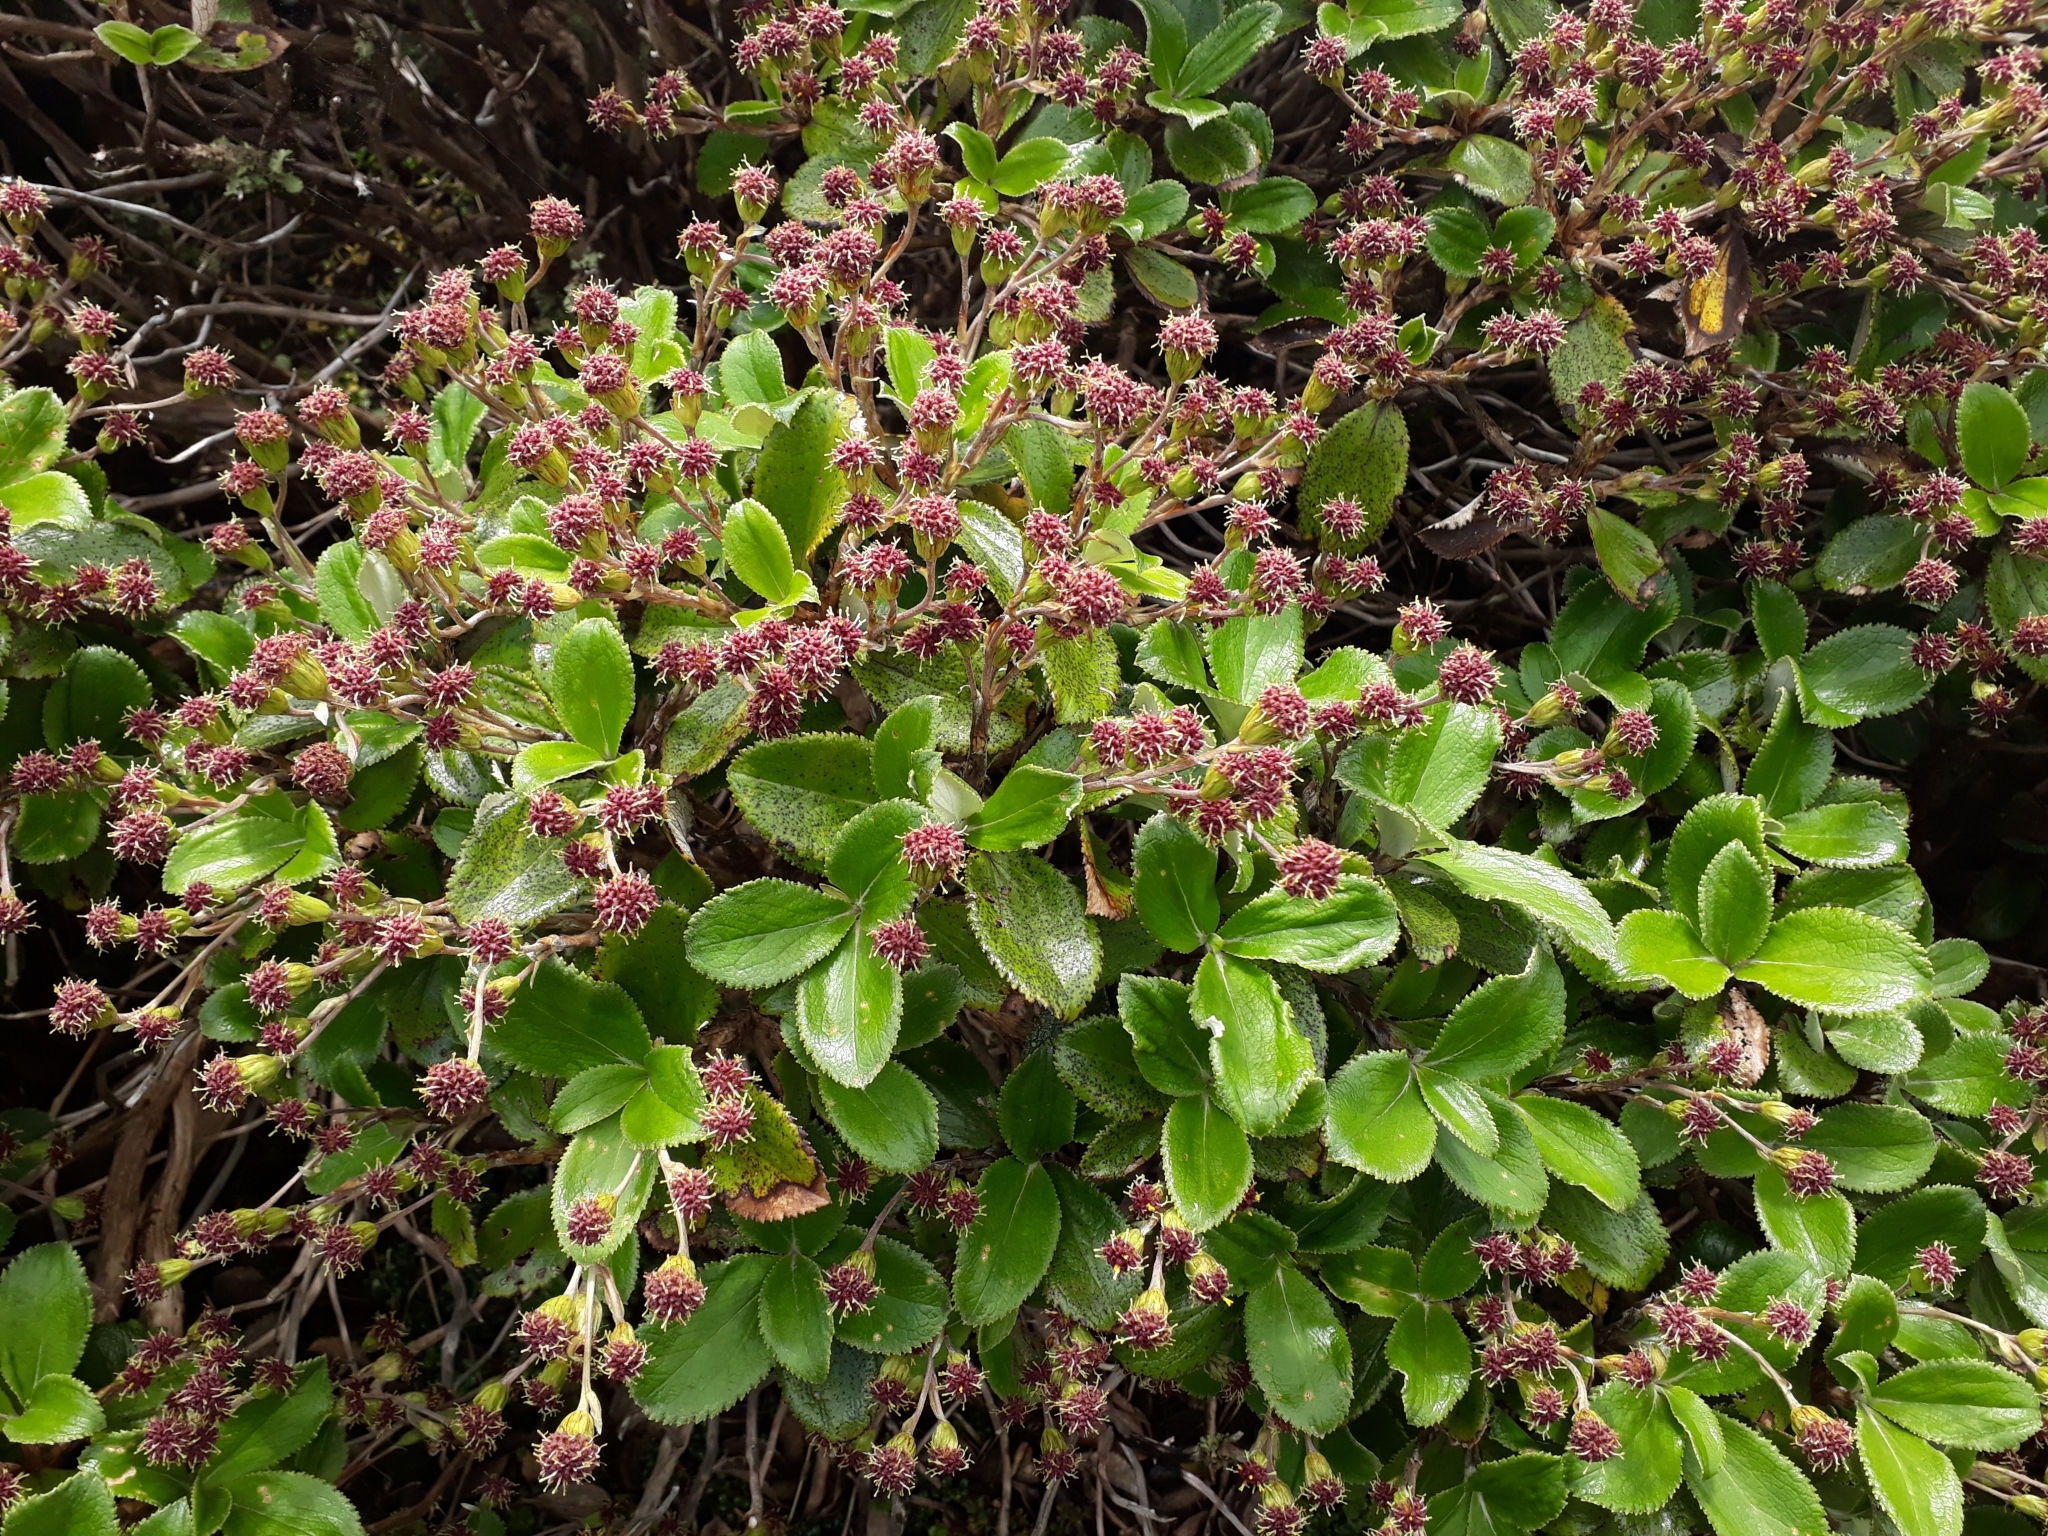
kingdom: Plantae
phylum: Tracheophyta
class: Magnoliopsida
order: Asterales
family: Asteraceae
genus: Macrolearia
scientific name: Macrolearia colensoi
